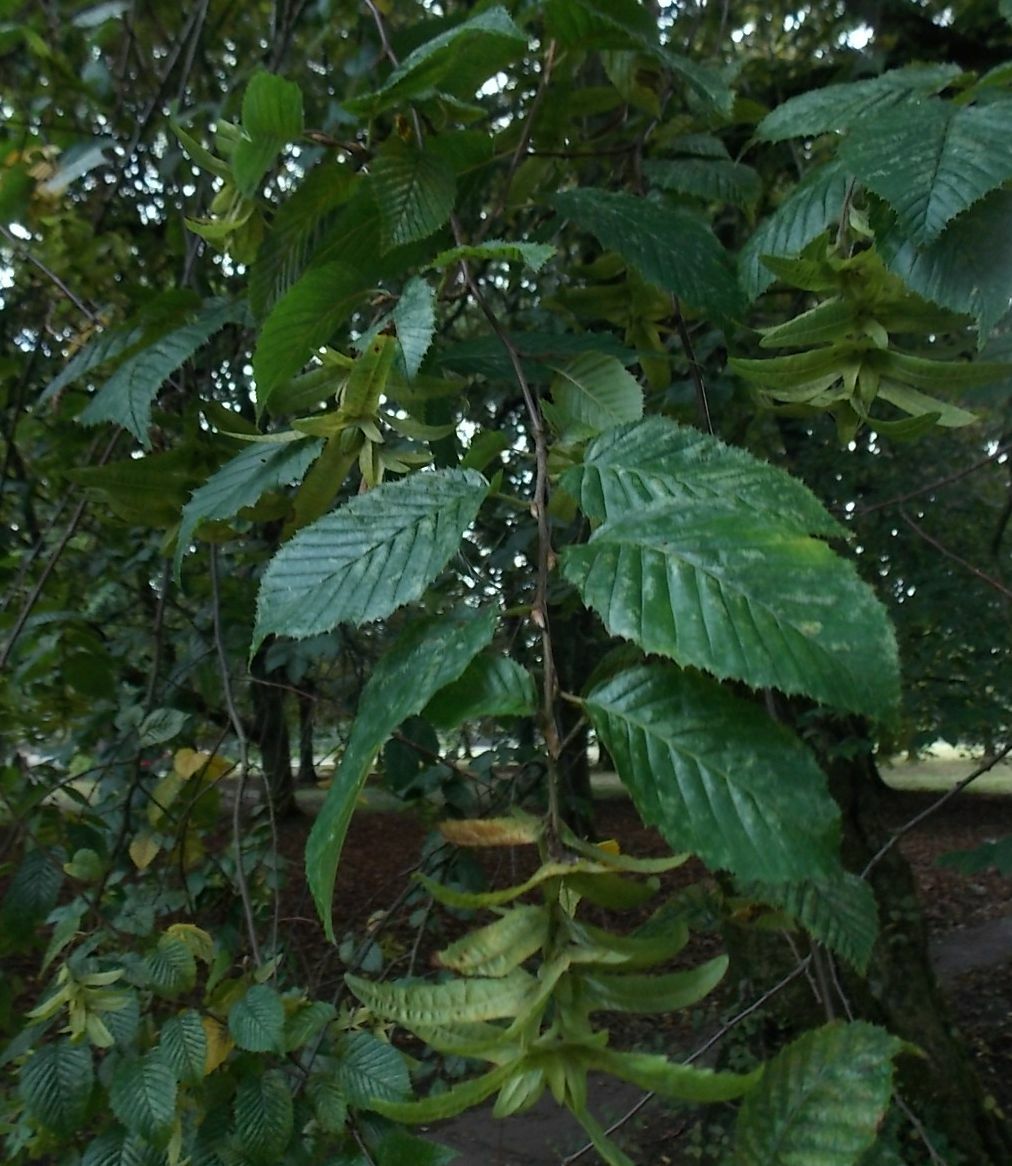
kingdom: Plantae
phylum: Tracheophyta
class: Magnoliopsida
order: Fagales
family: Betulaceae
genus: Carpinus
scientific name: Carpinus betulus
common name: Hornbeam
